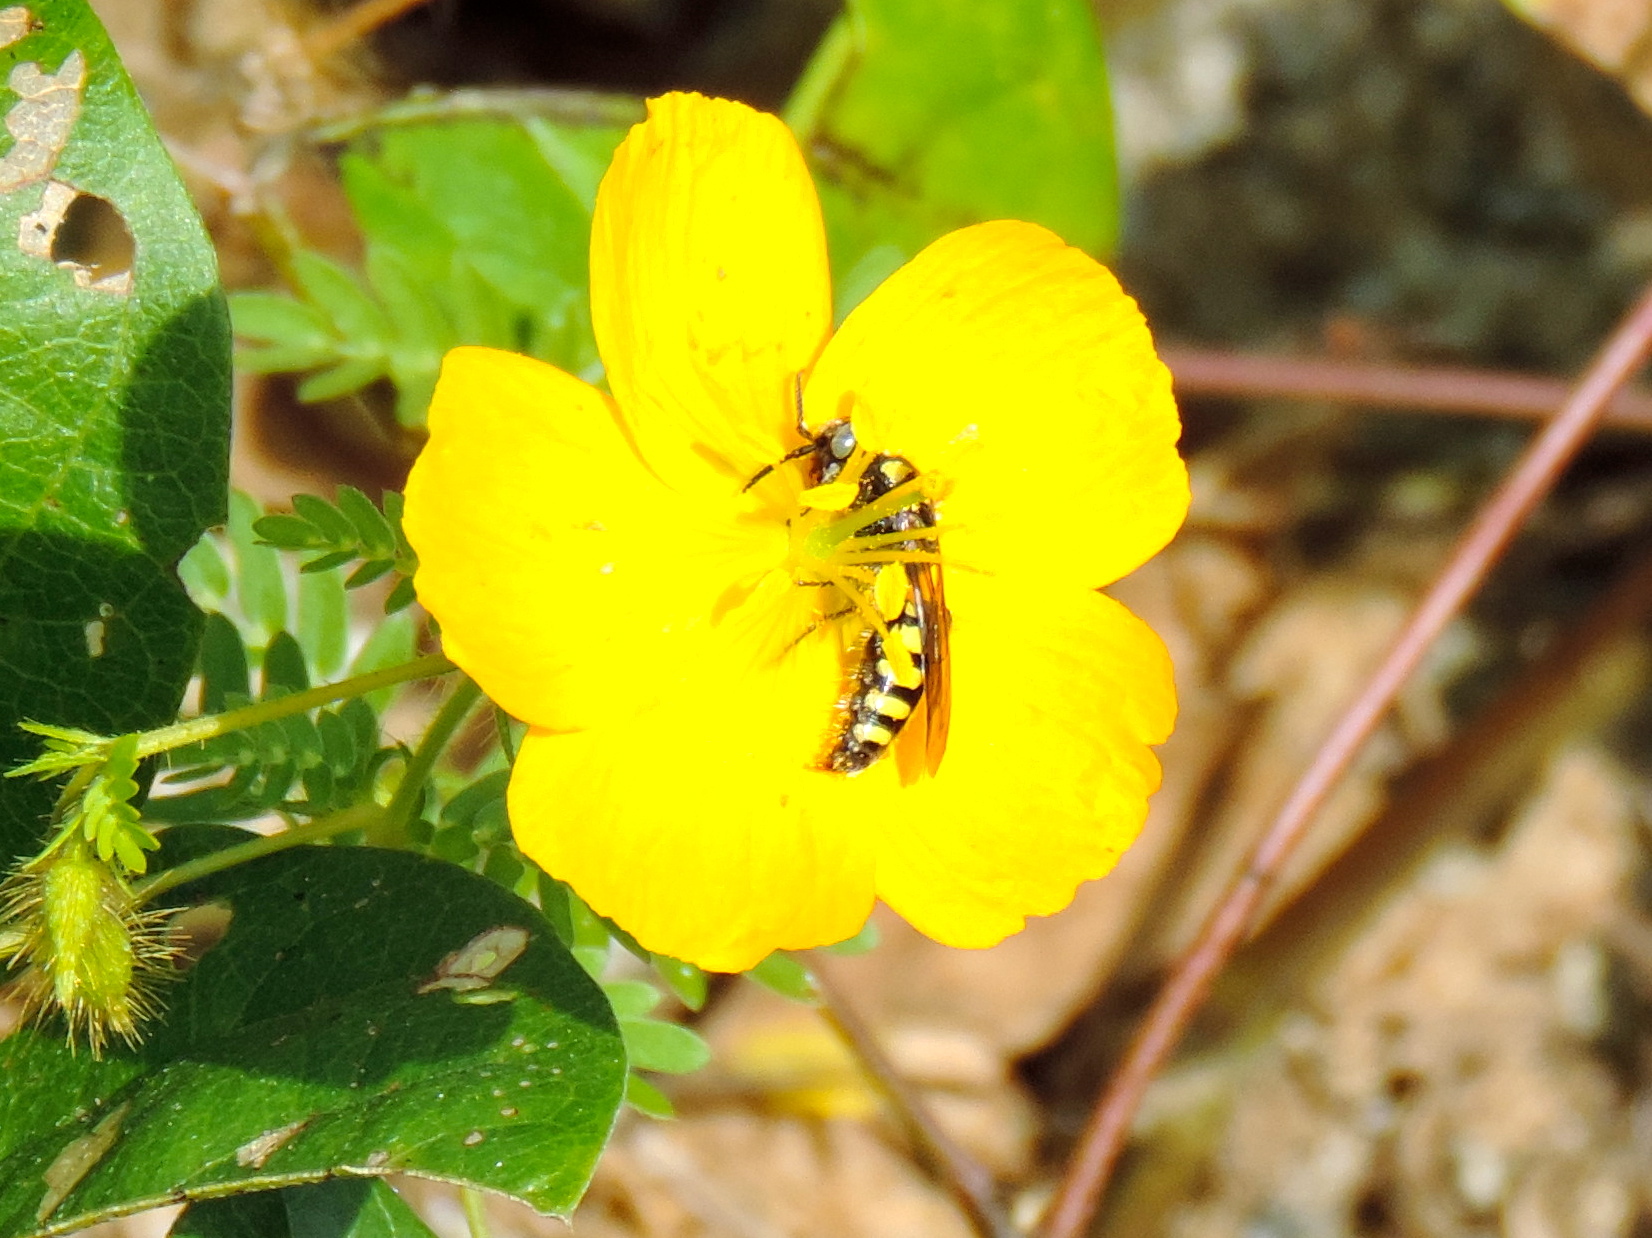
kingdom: Animalia
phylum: Arthropoda
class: Insecta
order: Hymenoptera
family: Tiphiidae
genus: Myzinum
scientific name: Myzinum
